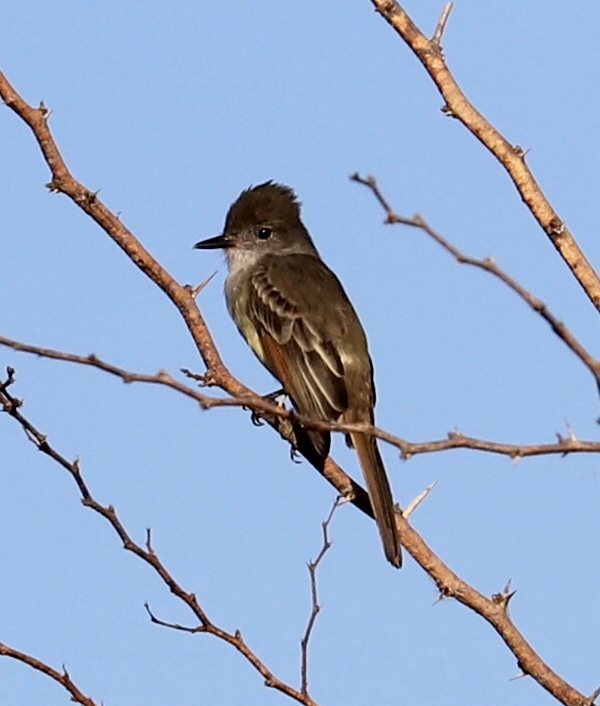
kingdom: Animalia
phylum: Chordata
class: Aves
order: Passeriformes
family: Tyrannidae
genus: Myiarchus
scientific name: Myiarchus stolidus
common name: Stolid flycatcher
